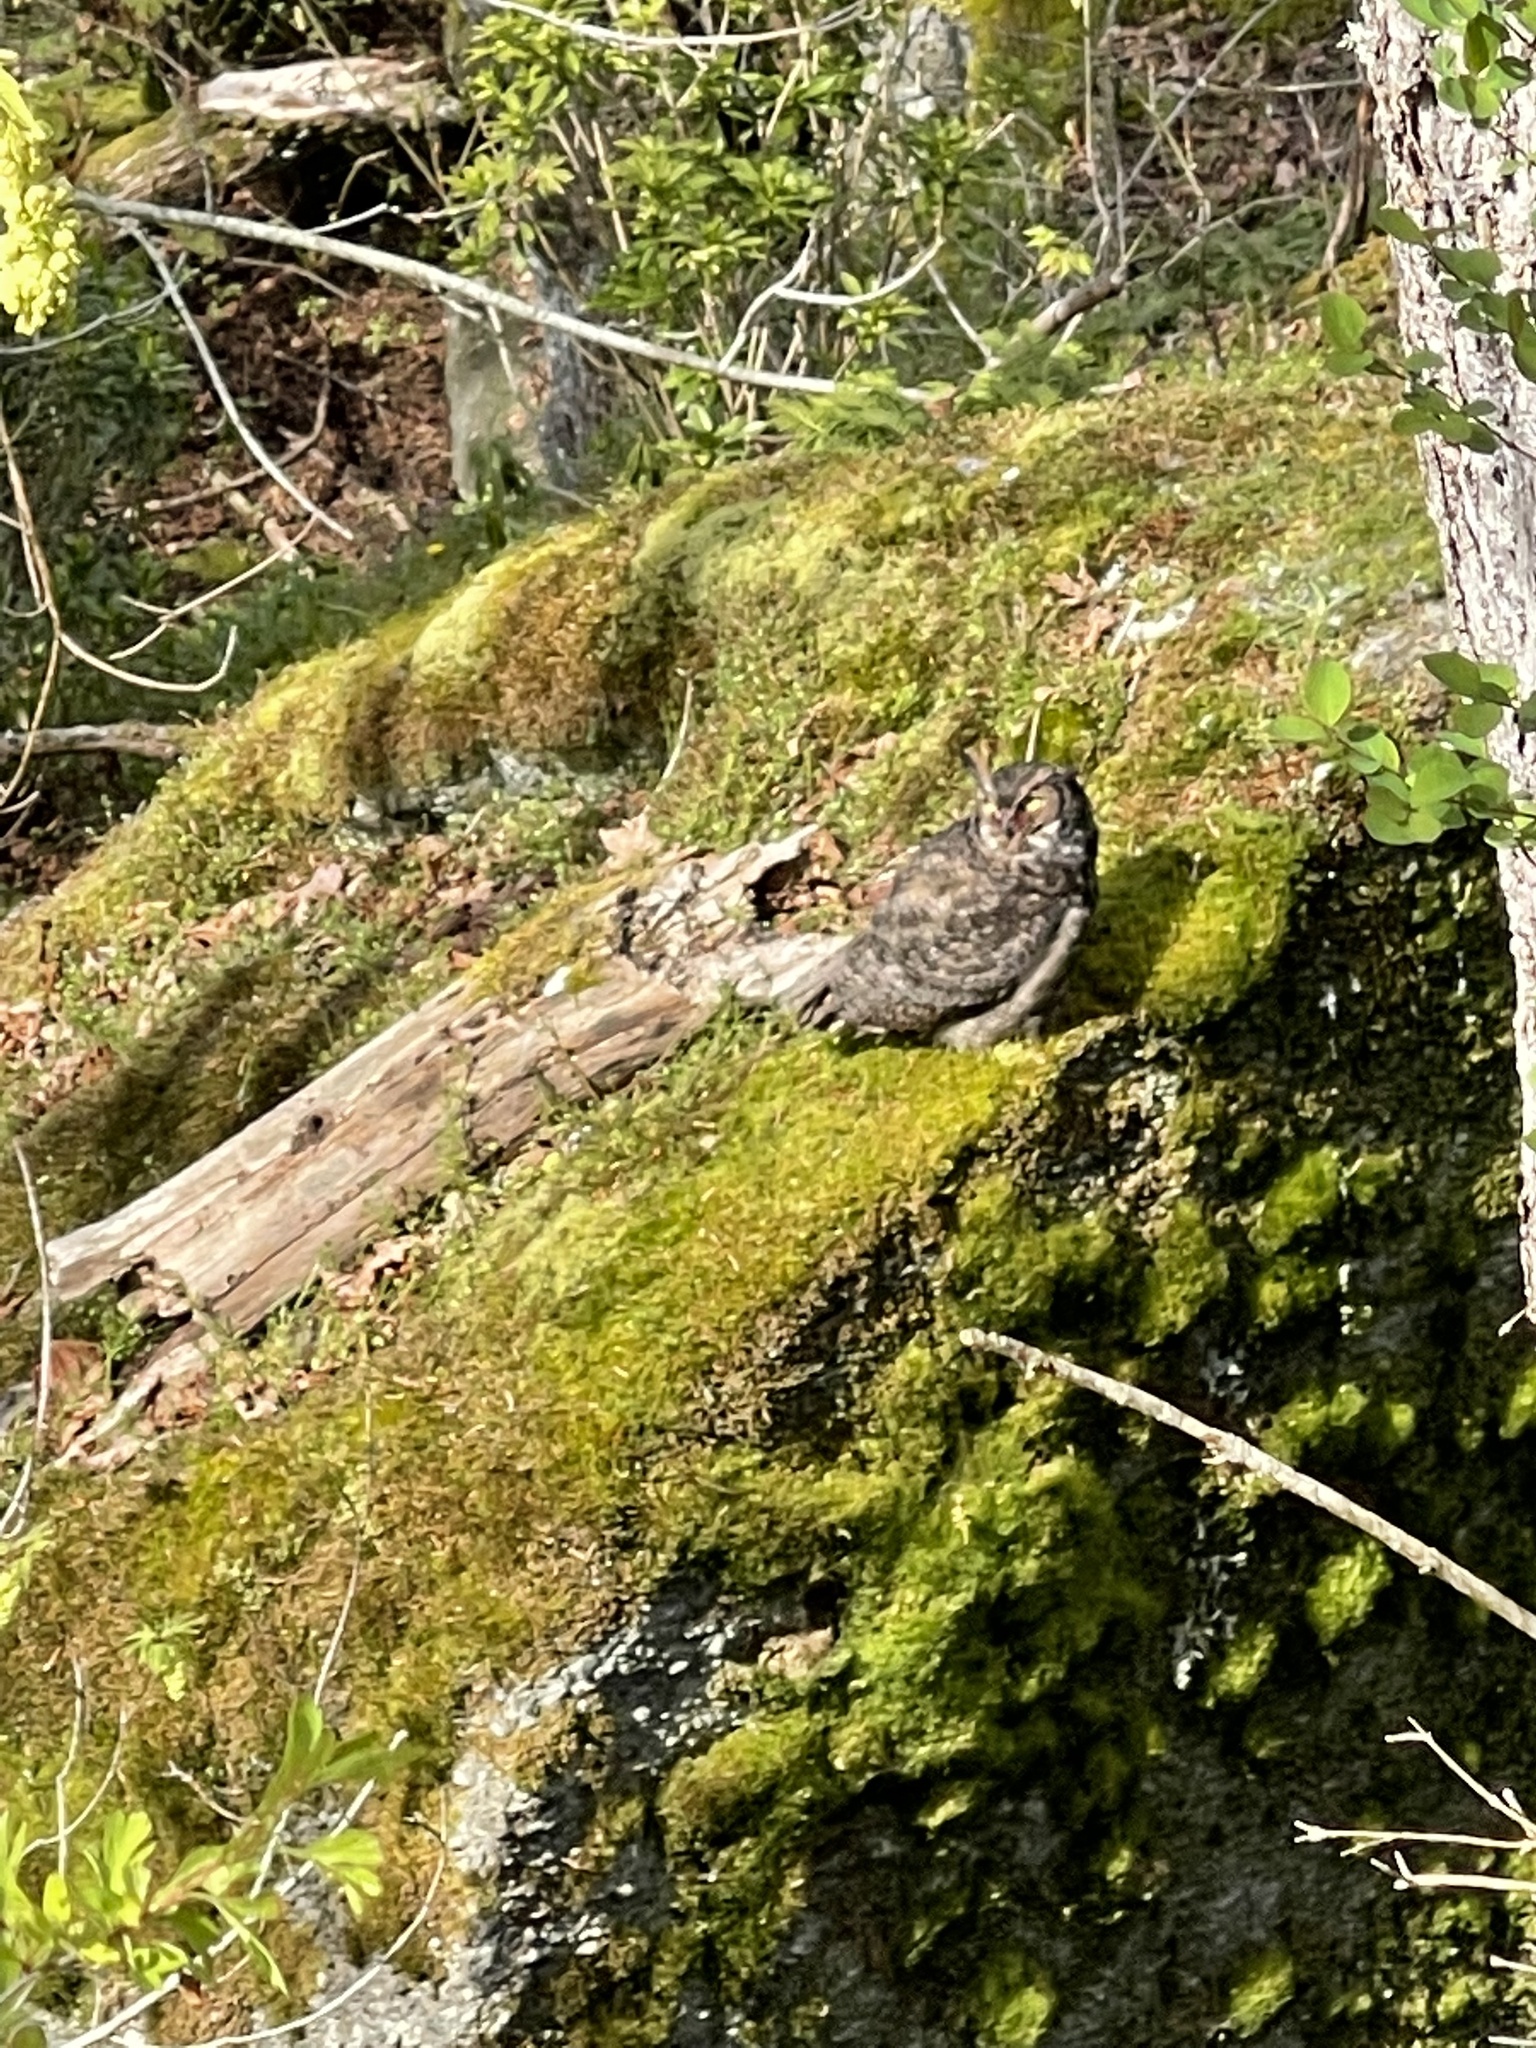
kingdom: Animalia
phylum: Chordata
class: Aves
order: Strigiformes
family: Strigidae
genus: Bubo
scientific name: Bubo virginianus
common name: Great horned owl
